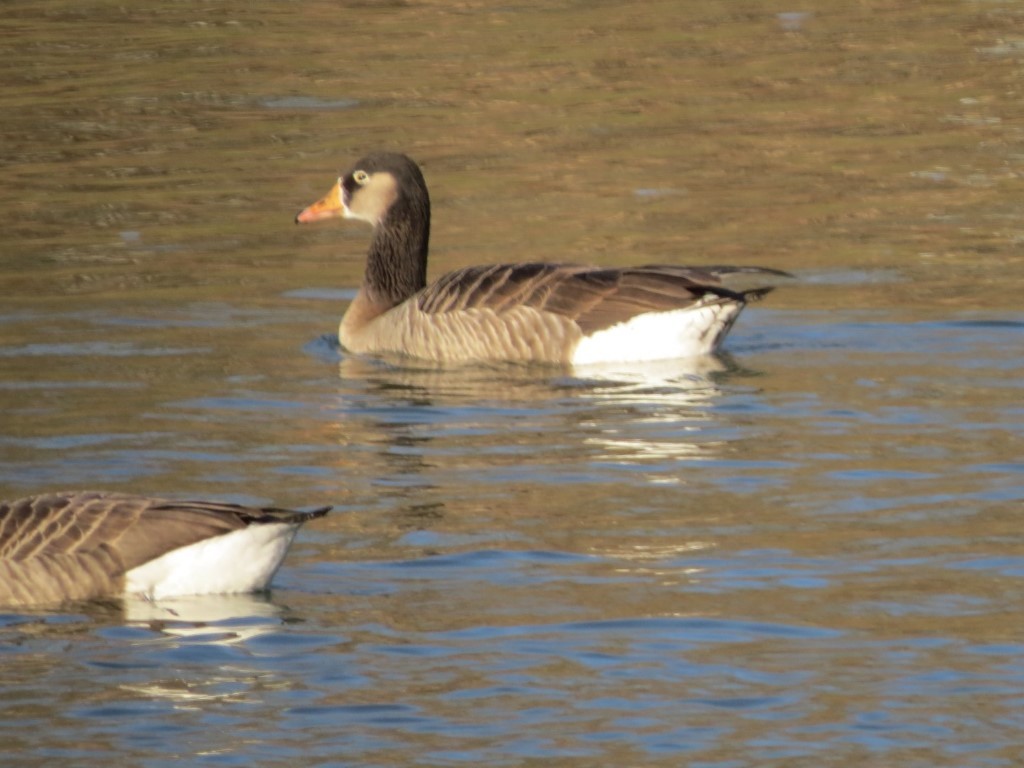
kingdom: Animalia
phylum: Chordata
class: Aves
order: Anseriformes
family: Anatidae
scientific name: Anatidae
